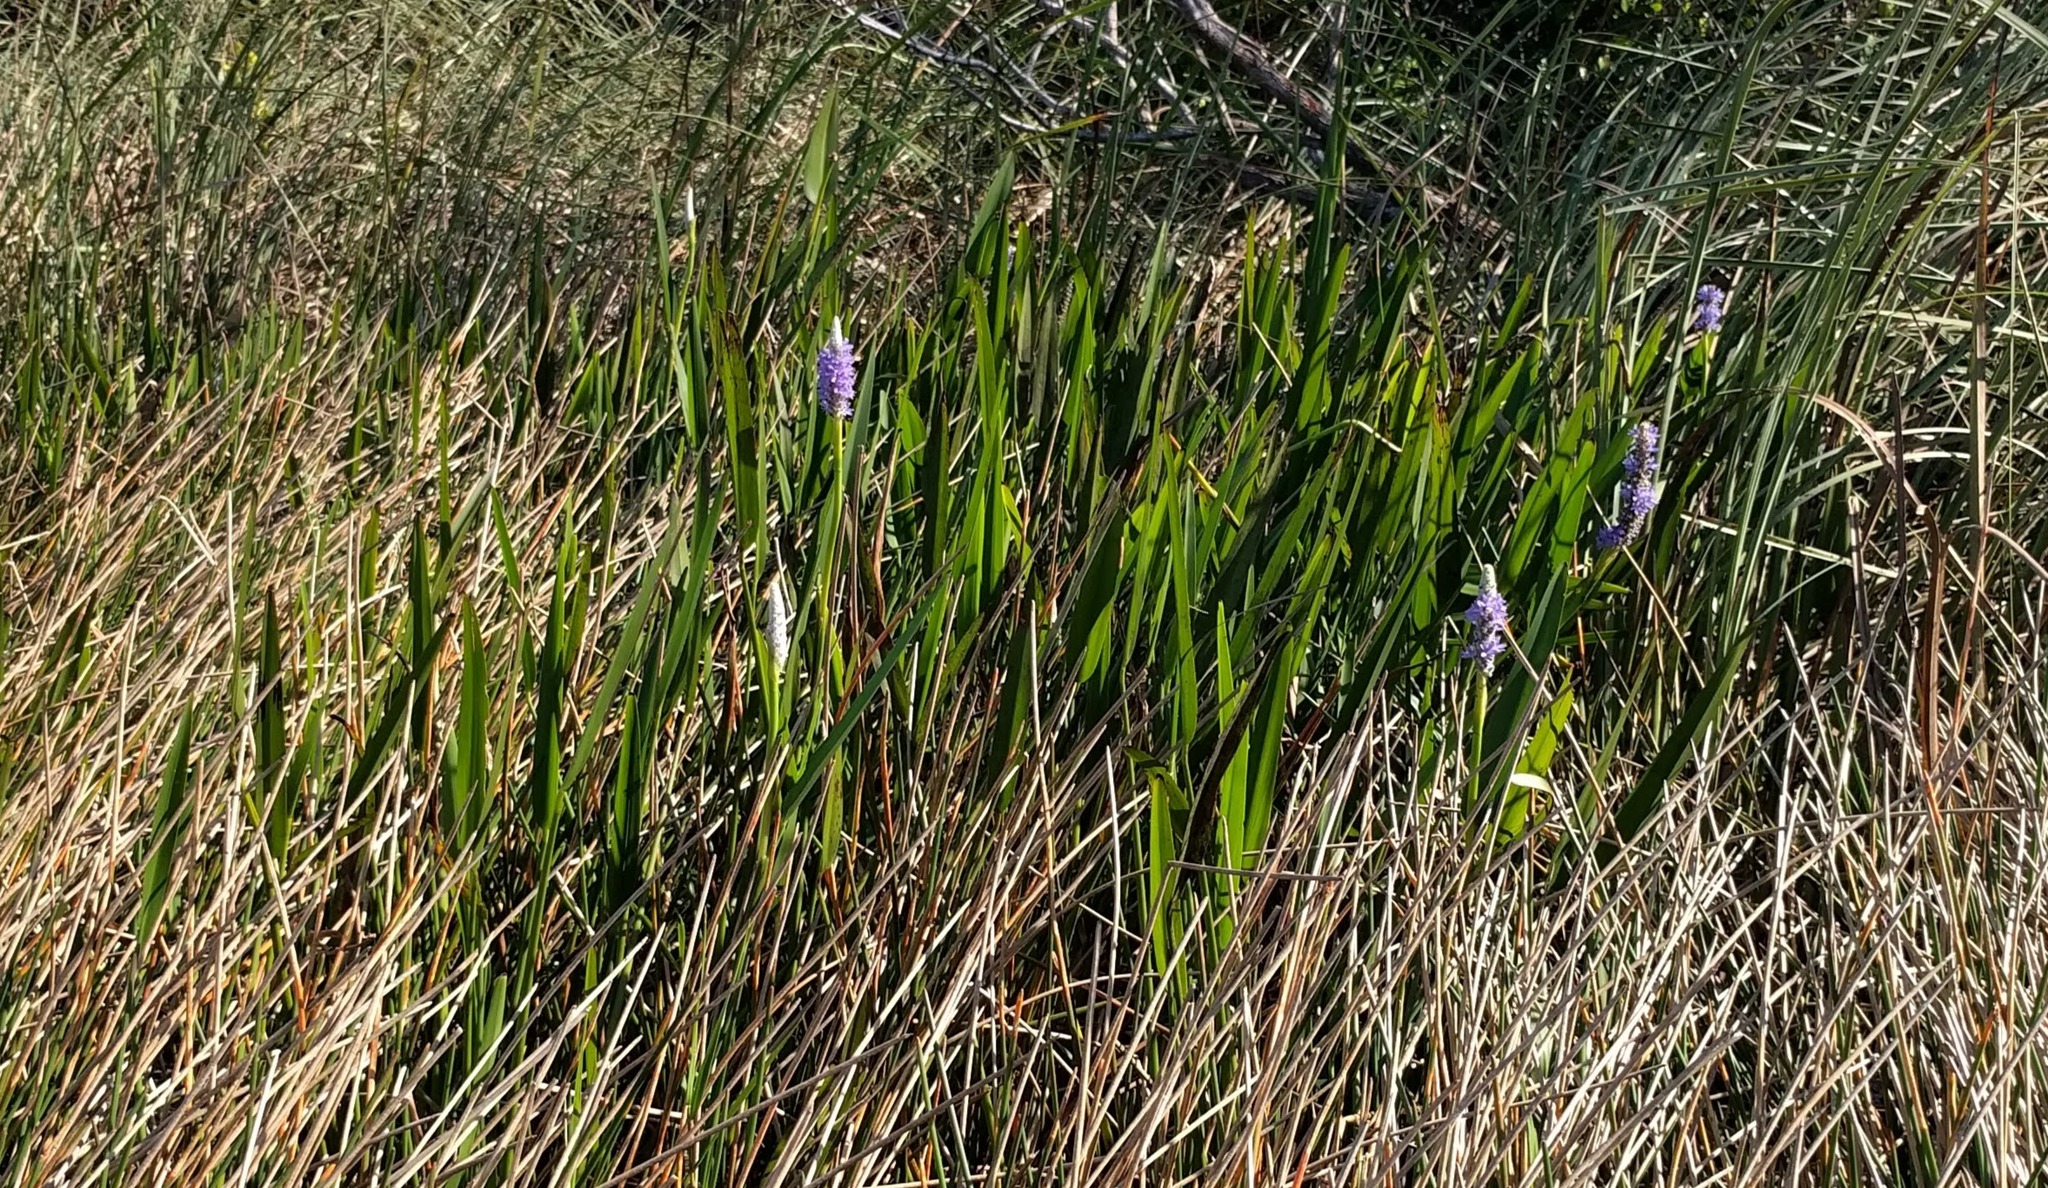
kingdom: Plantae
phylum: Tracheophyta
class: Liliopsida
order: Commelinales
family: Pontederiaceae
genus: Pontederia
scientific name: Pontederia cordata
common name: Pickerelweed
